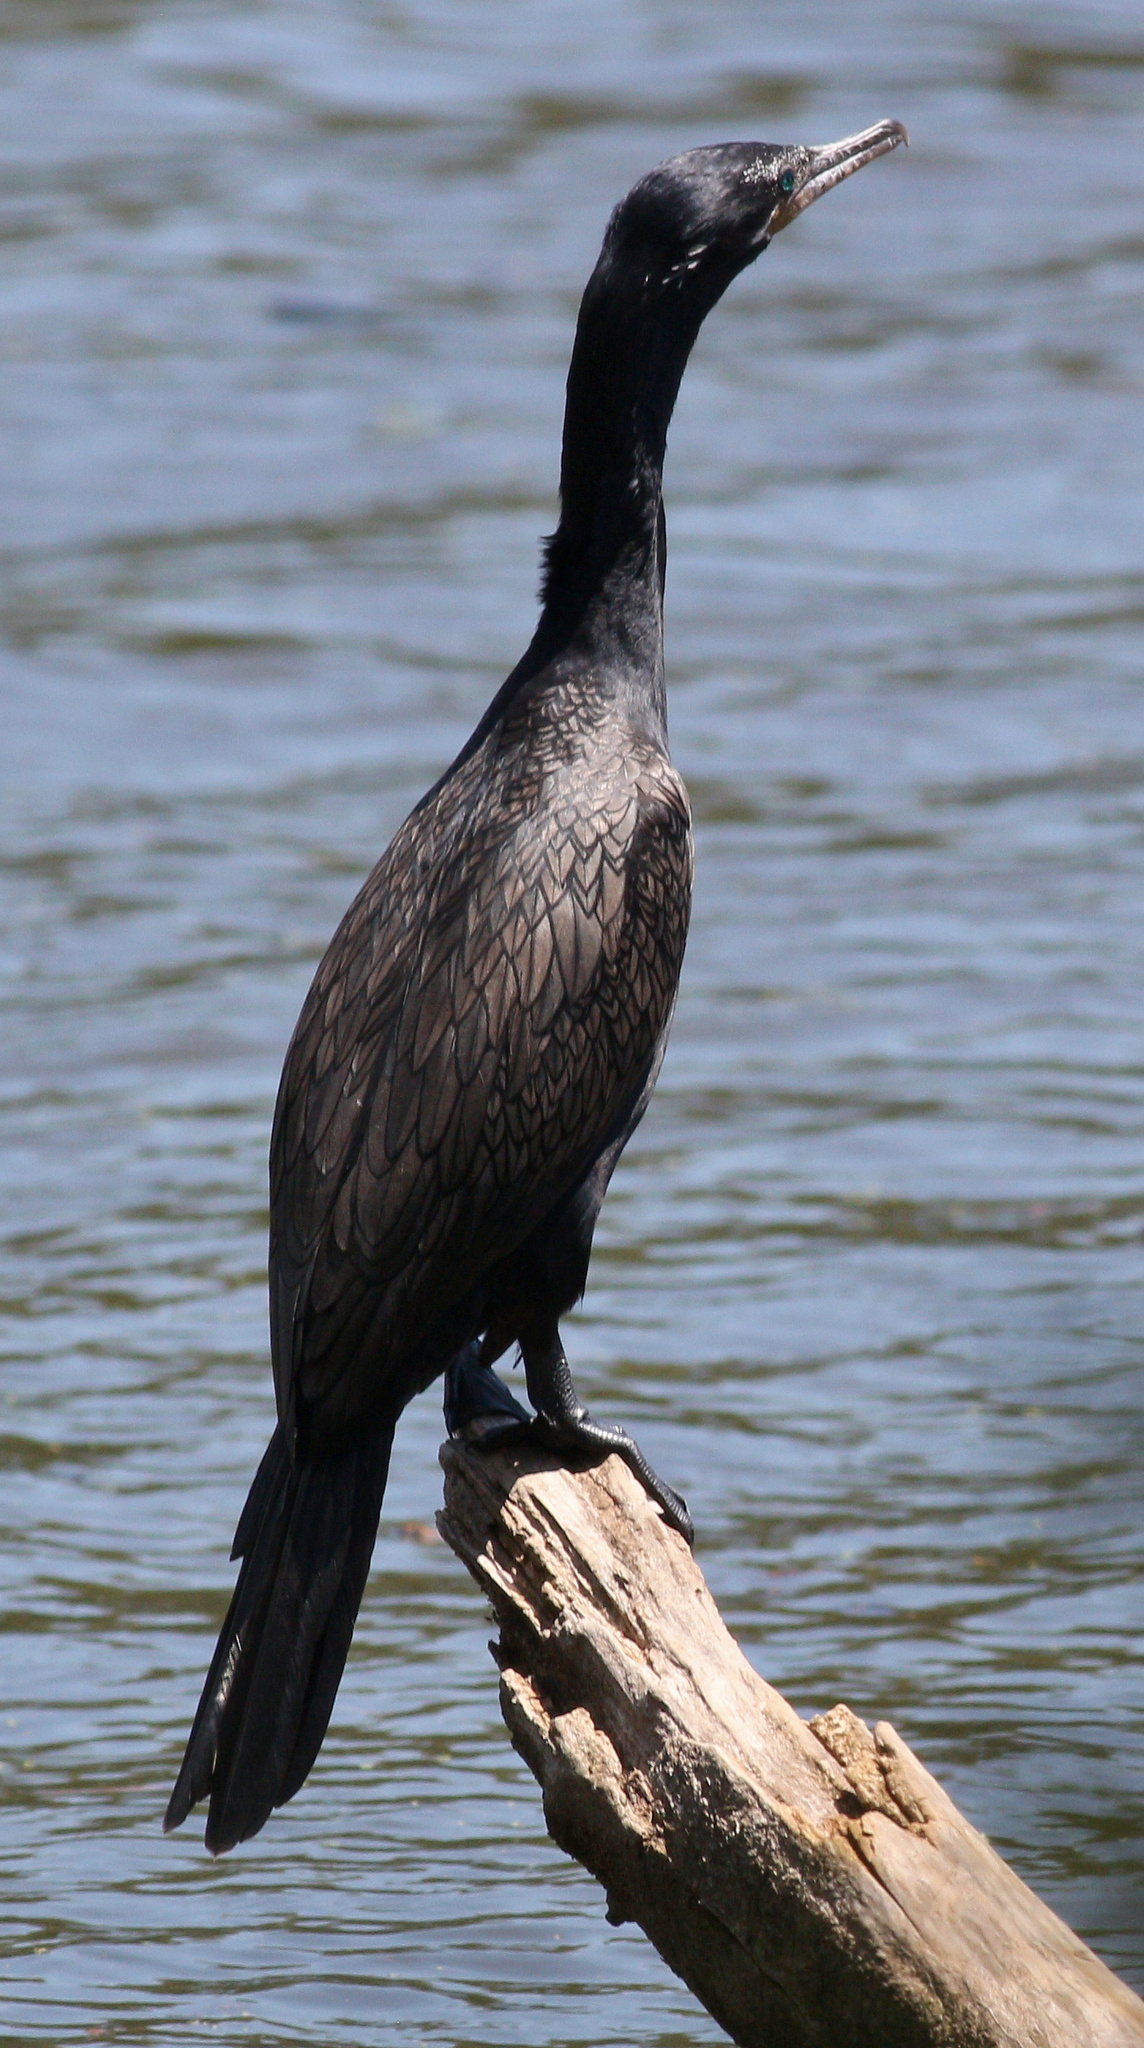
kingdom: Animalia
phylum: Chordata
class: Aves
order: Suliformes
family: Phalacrocoracidae
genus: Phalacrocorax
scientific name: Phalacrocorax brasilianus
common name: Neotropic cormorant
